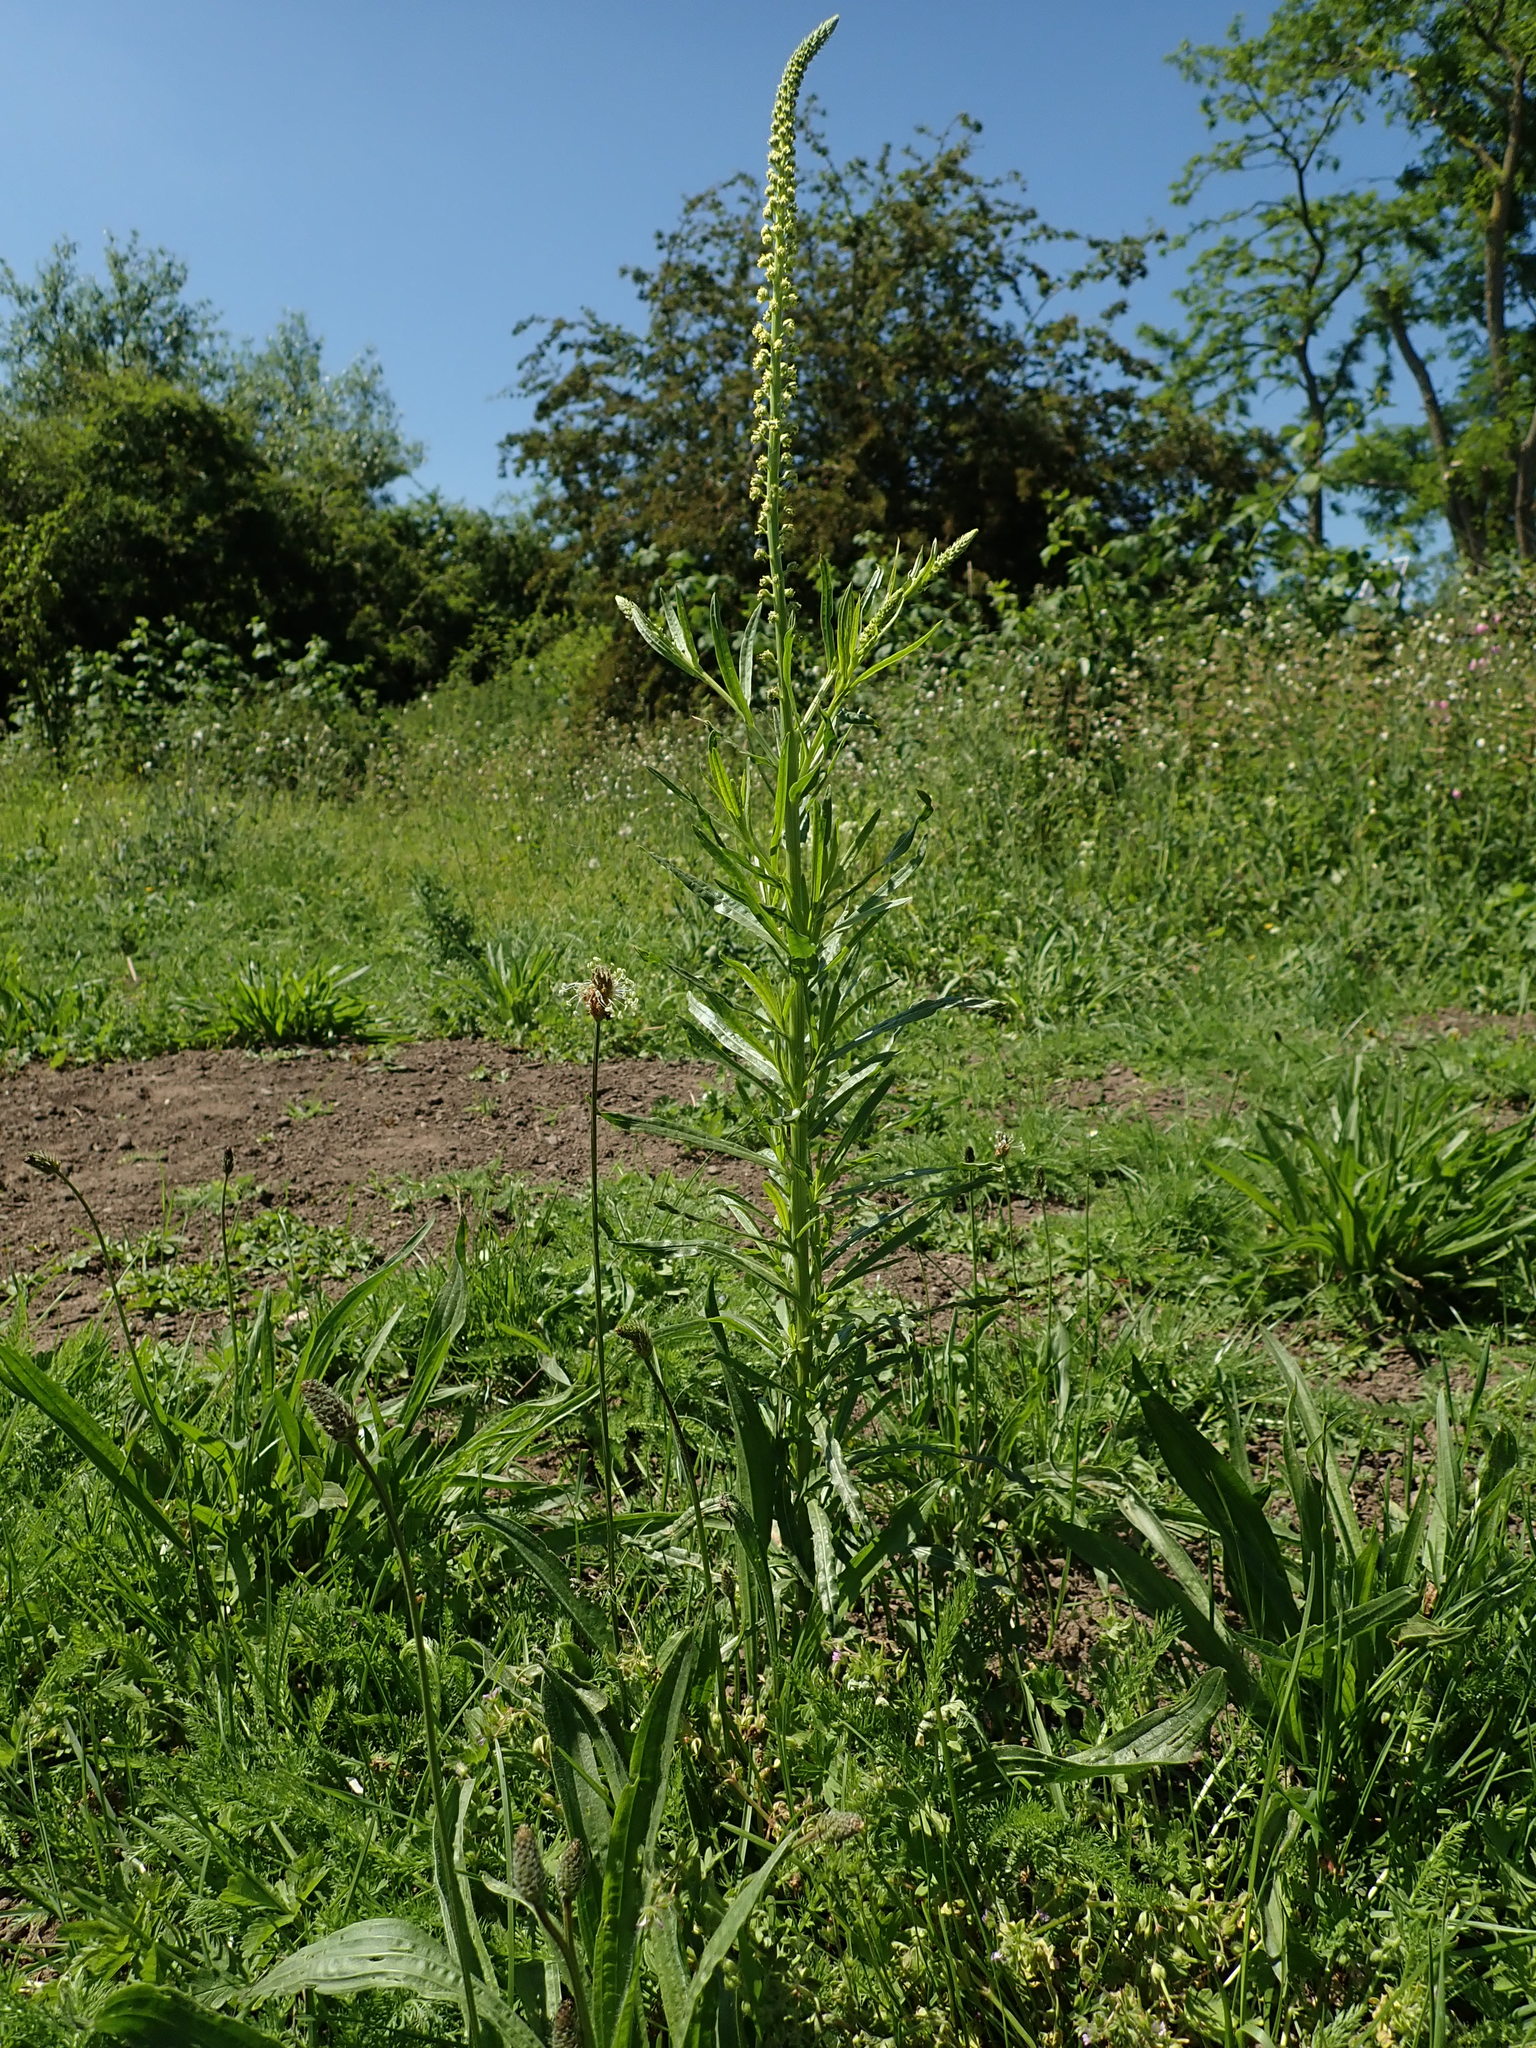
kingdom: Plantae
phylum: Tracheophyta
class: Magnoliopsida
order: Brassicales
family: Resedaceae
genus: Reseda
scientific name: Reseda luteola
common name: Weld
